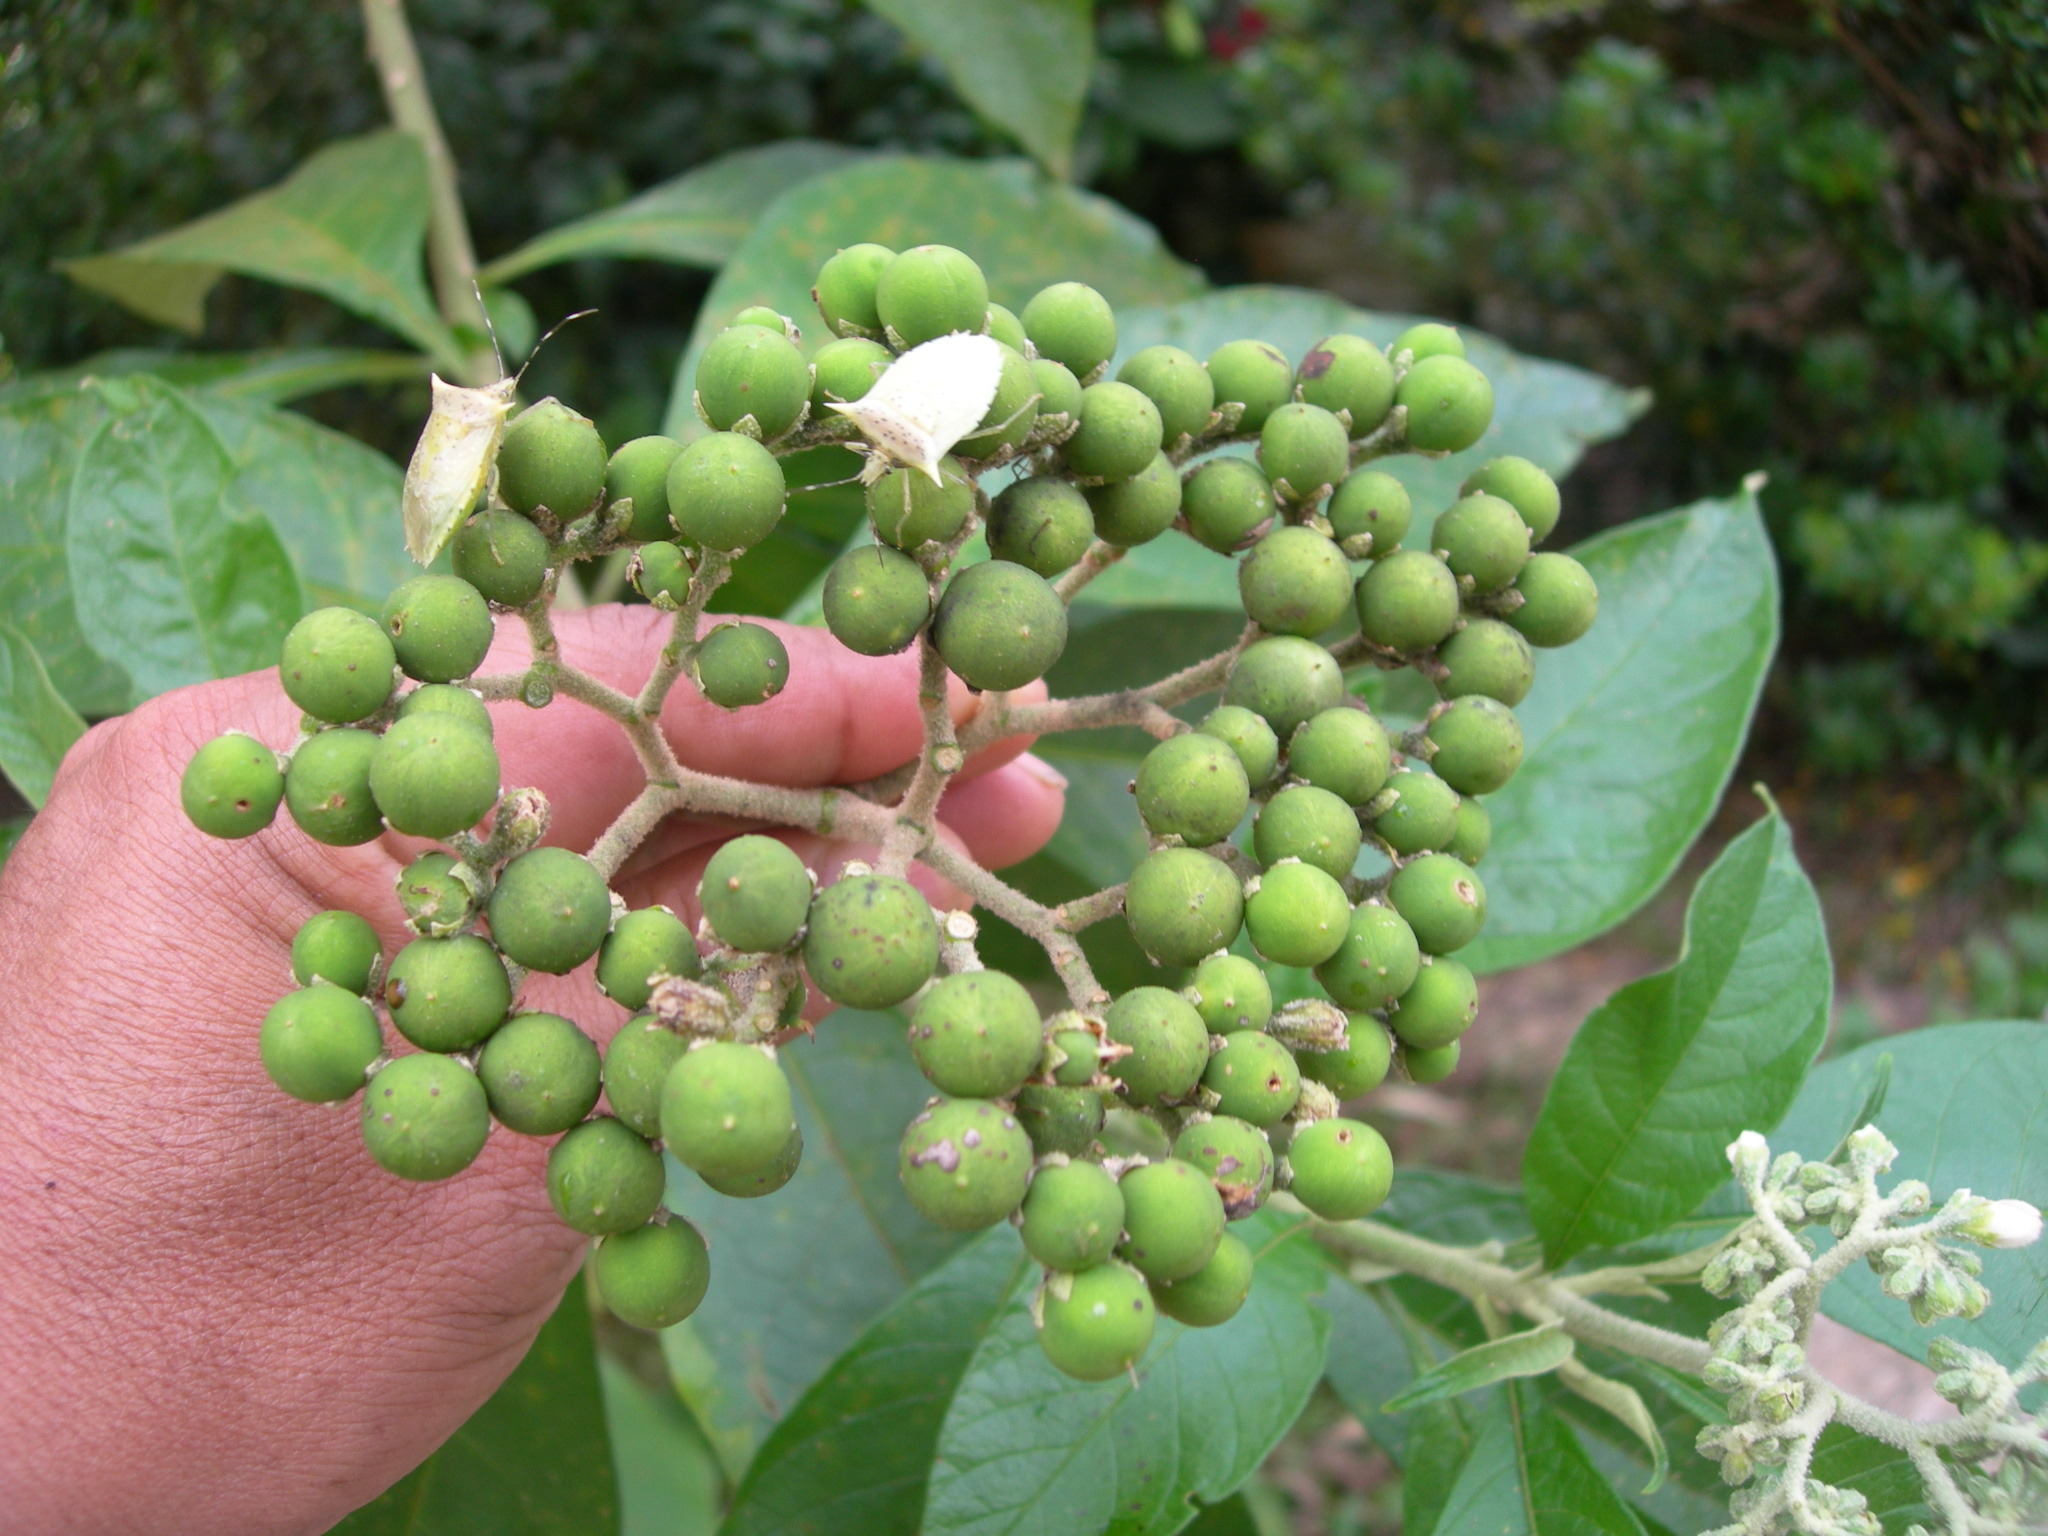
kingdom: Plantae
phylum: Tracheophyta
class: Magnoliopsida
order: Solanales
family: Solanaceae
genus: Solanum
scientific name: Solanum erianthum
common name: Tobacco-tree
